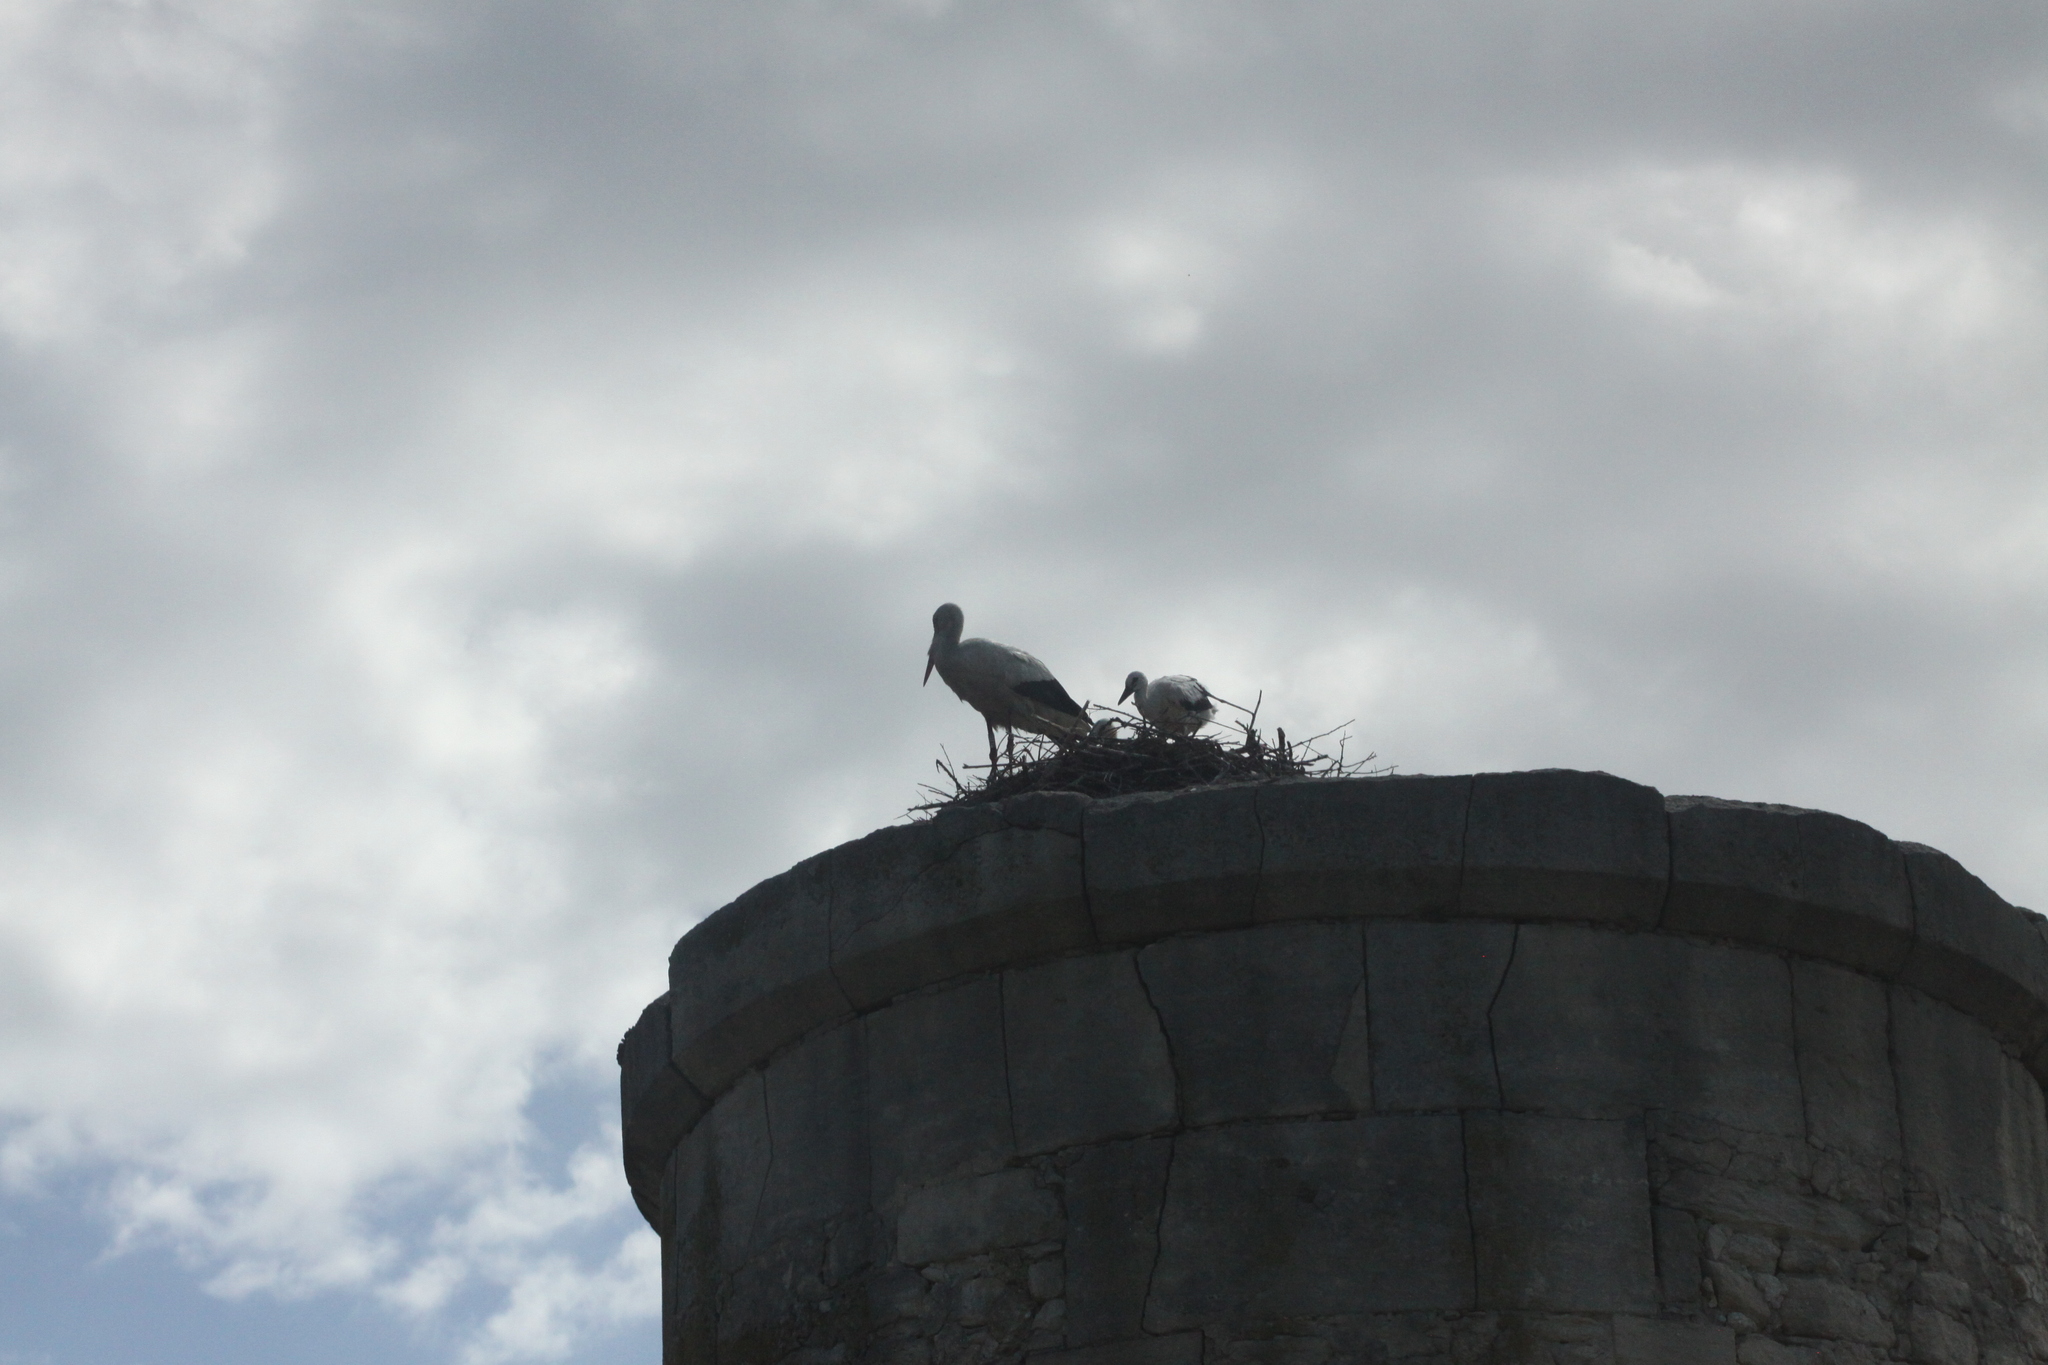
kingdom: Animalia
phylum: Chordata
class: Aves
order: Ciconiiformes
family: Ciconiidae
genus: Ciconia
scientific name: Ciconia ciconia
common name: White stork
